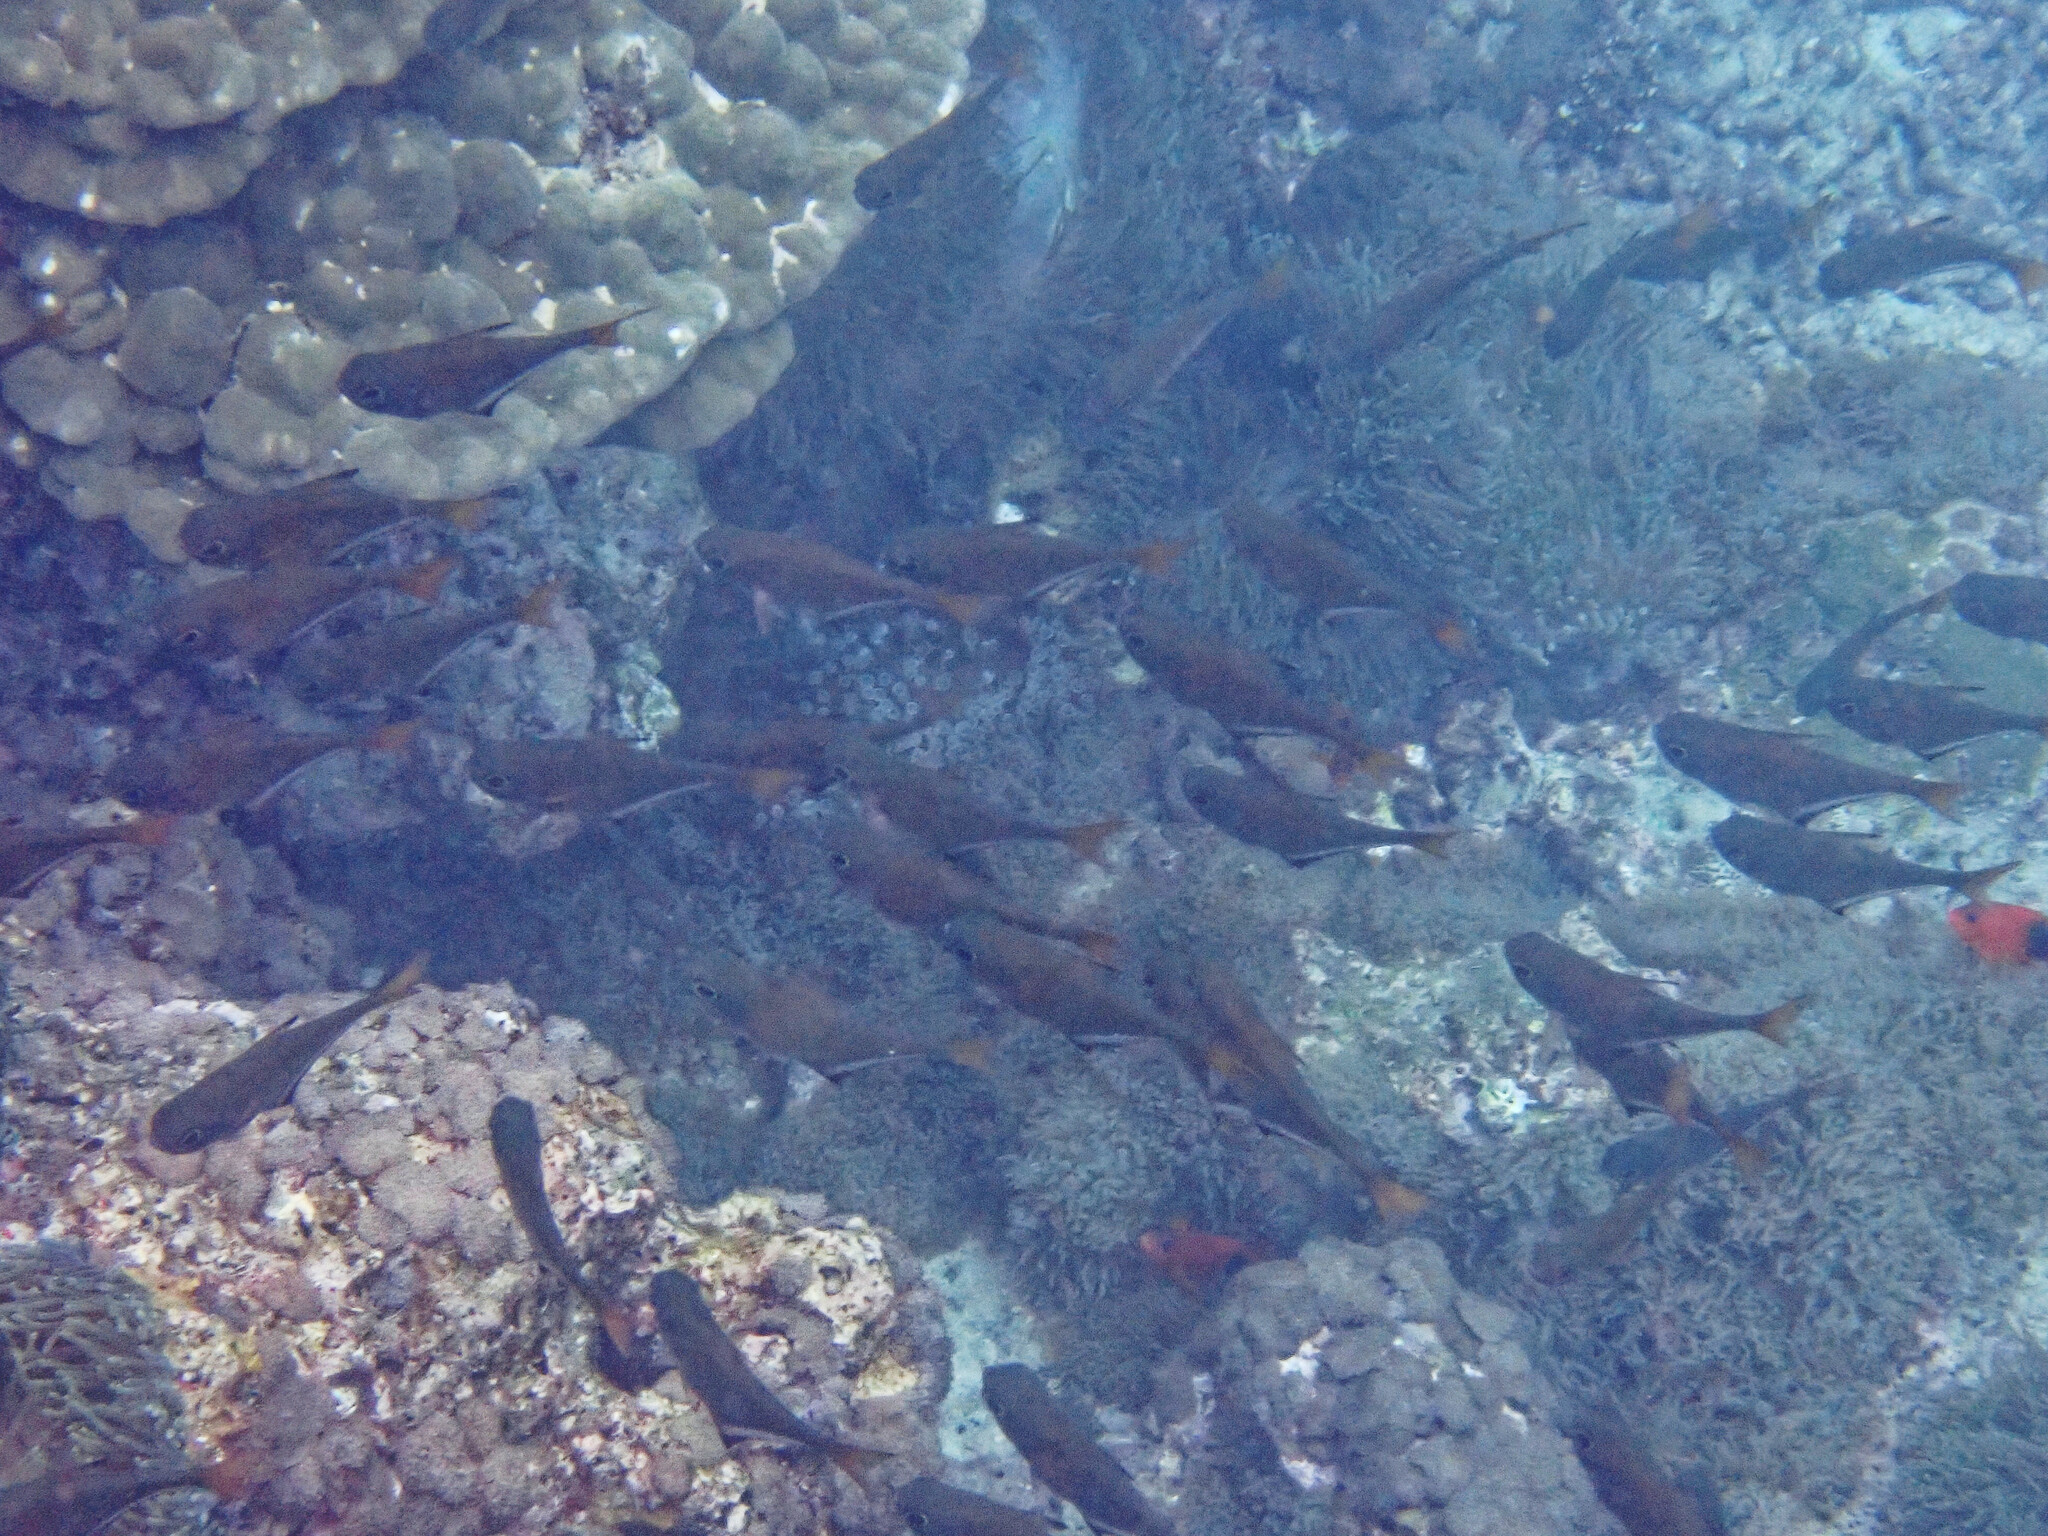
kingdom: Animalia
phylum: Chordata
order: Perciformes
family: Pempheridae
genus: Pempheris
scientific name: Pempheris vanicolensis
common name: Vanikoro sweeper
